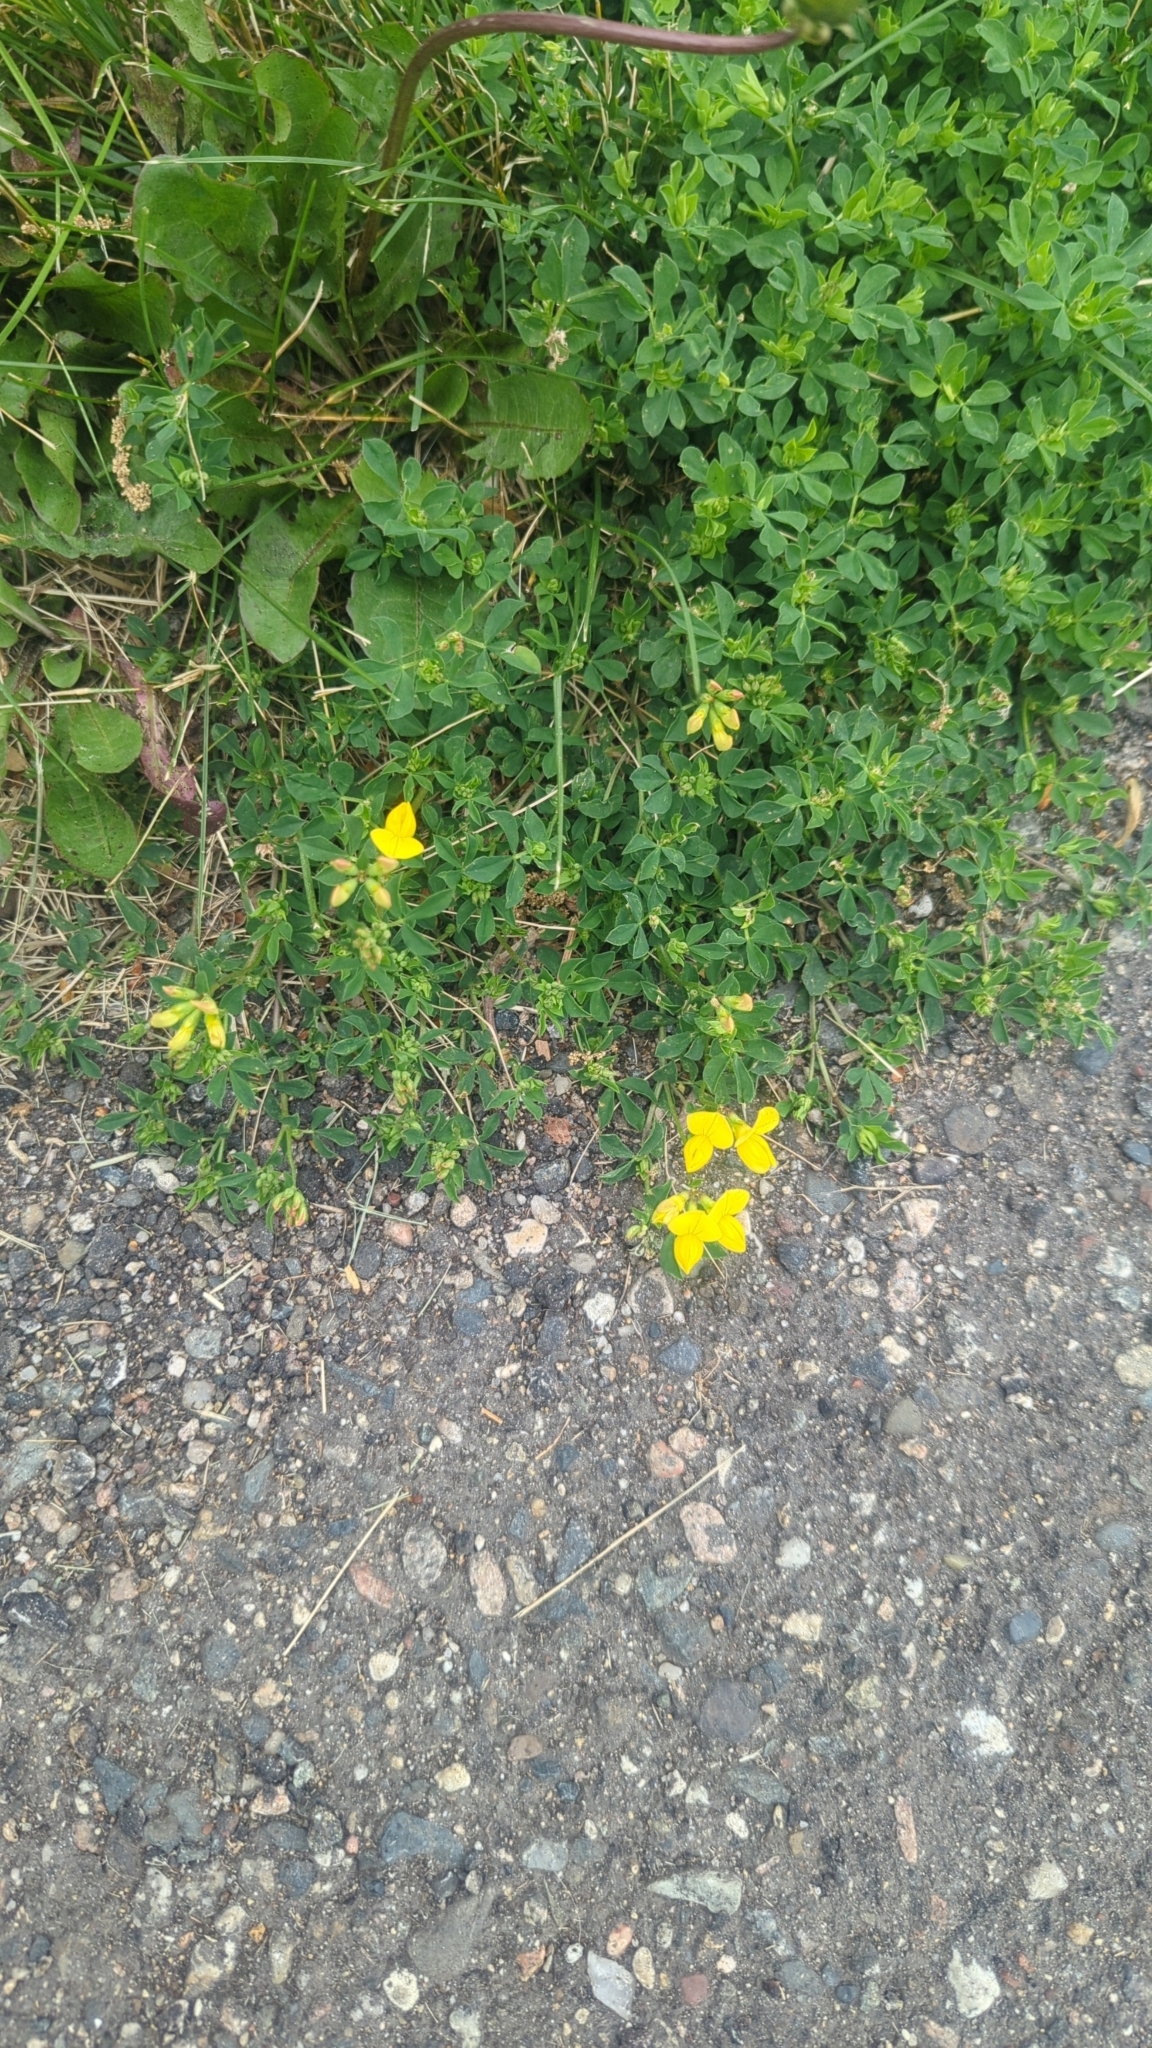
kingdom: Plantae
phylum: Tracheophyta
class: Magnoliopsida
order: Fabales
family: Fabaceae
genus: Lotus
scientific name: Lotus corniculatus
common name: Common bird's-foot-trefoil
